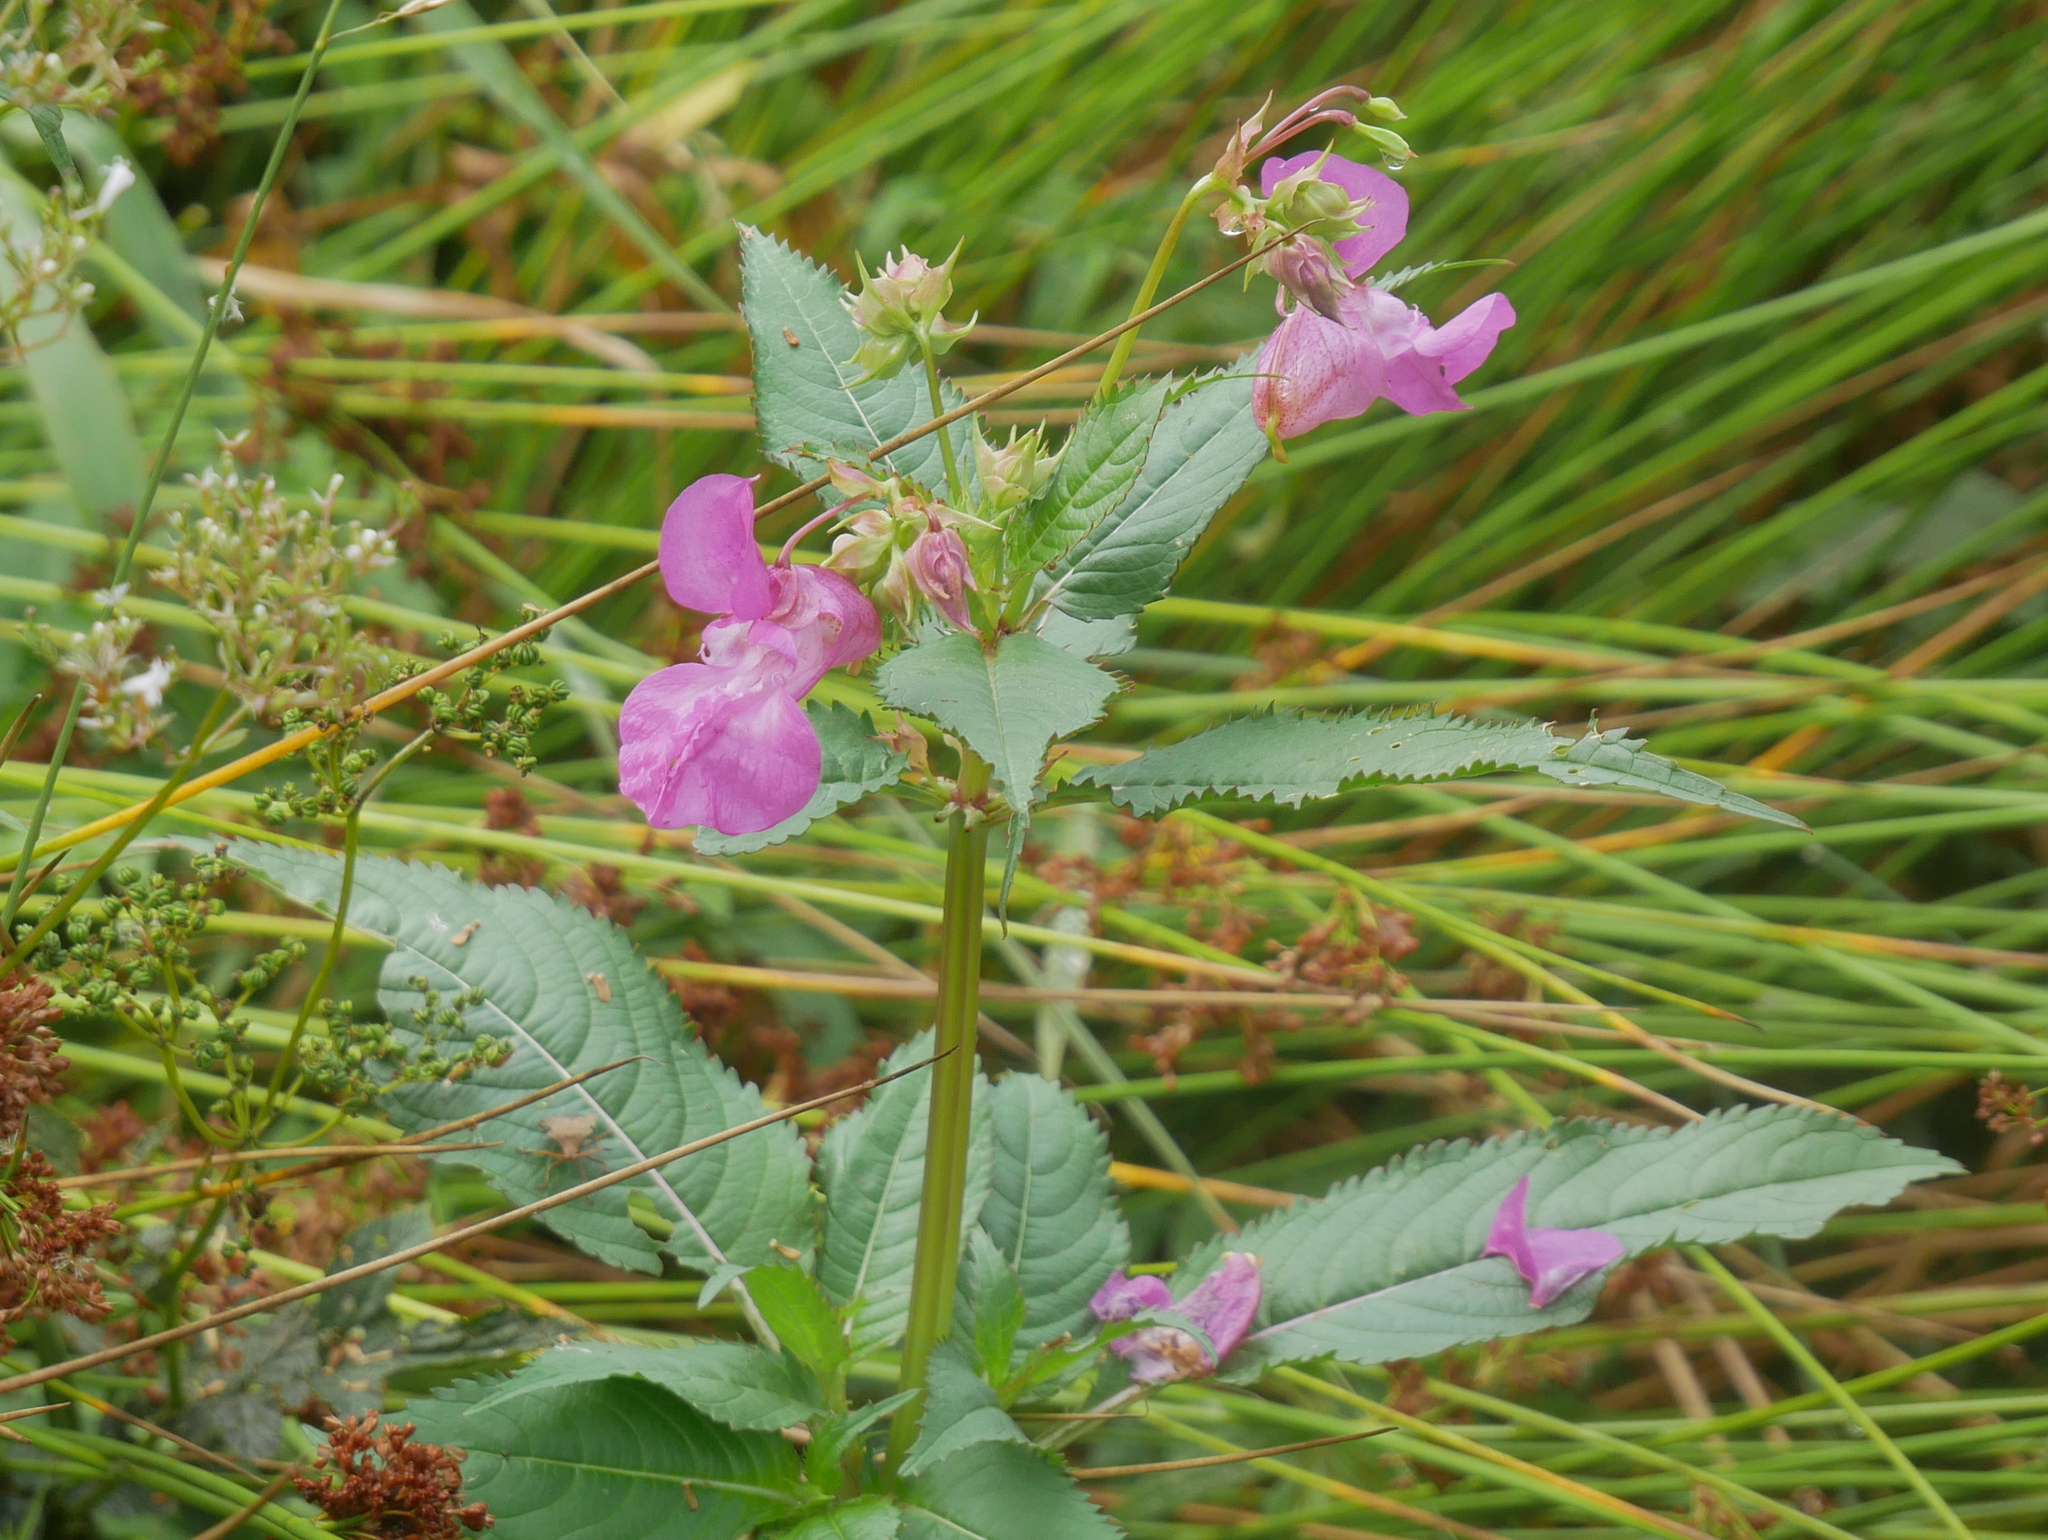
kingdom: Plantae
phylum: Tracheophyta
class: Magnoliopsida
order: Ericales
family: Balsaminaceae
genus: Impatiens
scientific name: Impatiens glandulifera
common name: Himalayan balsam
